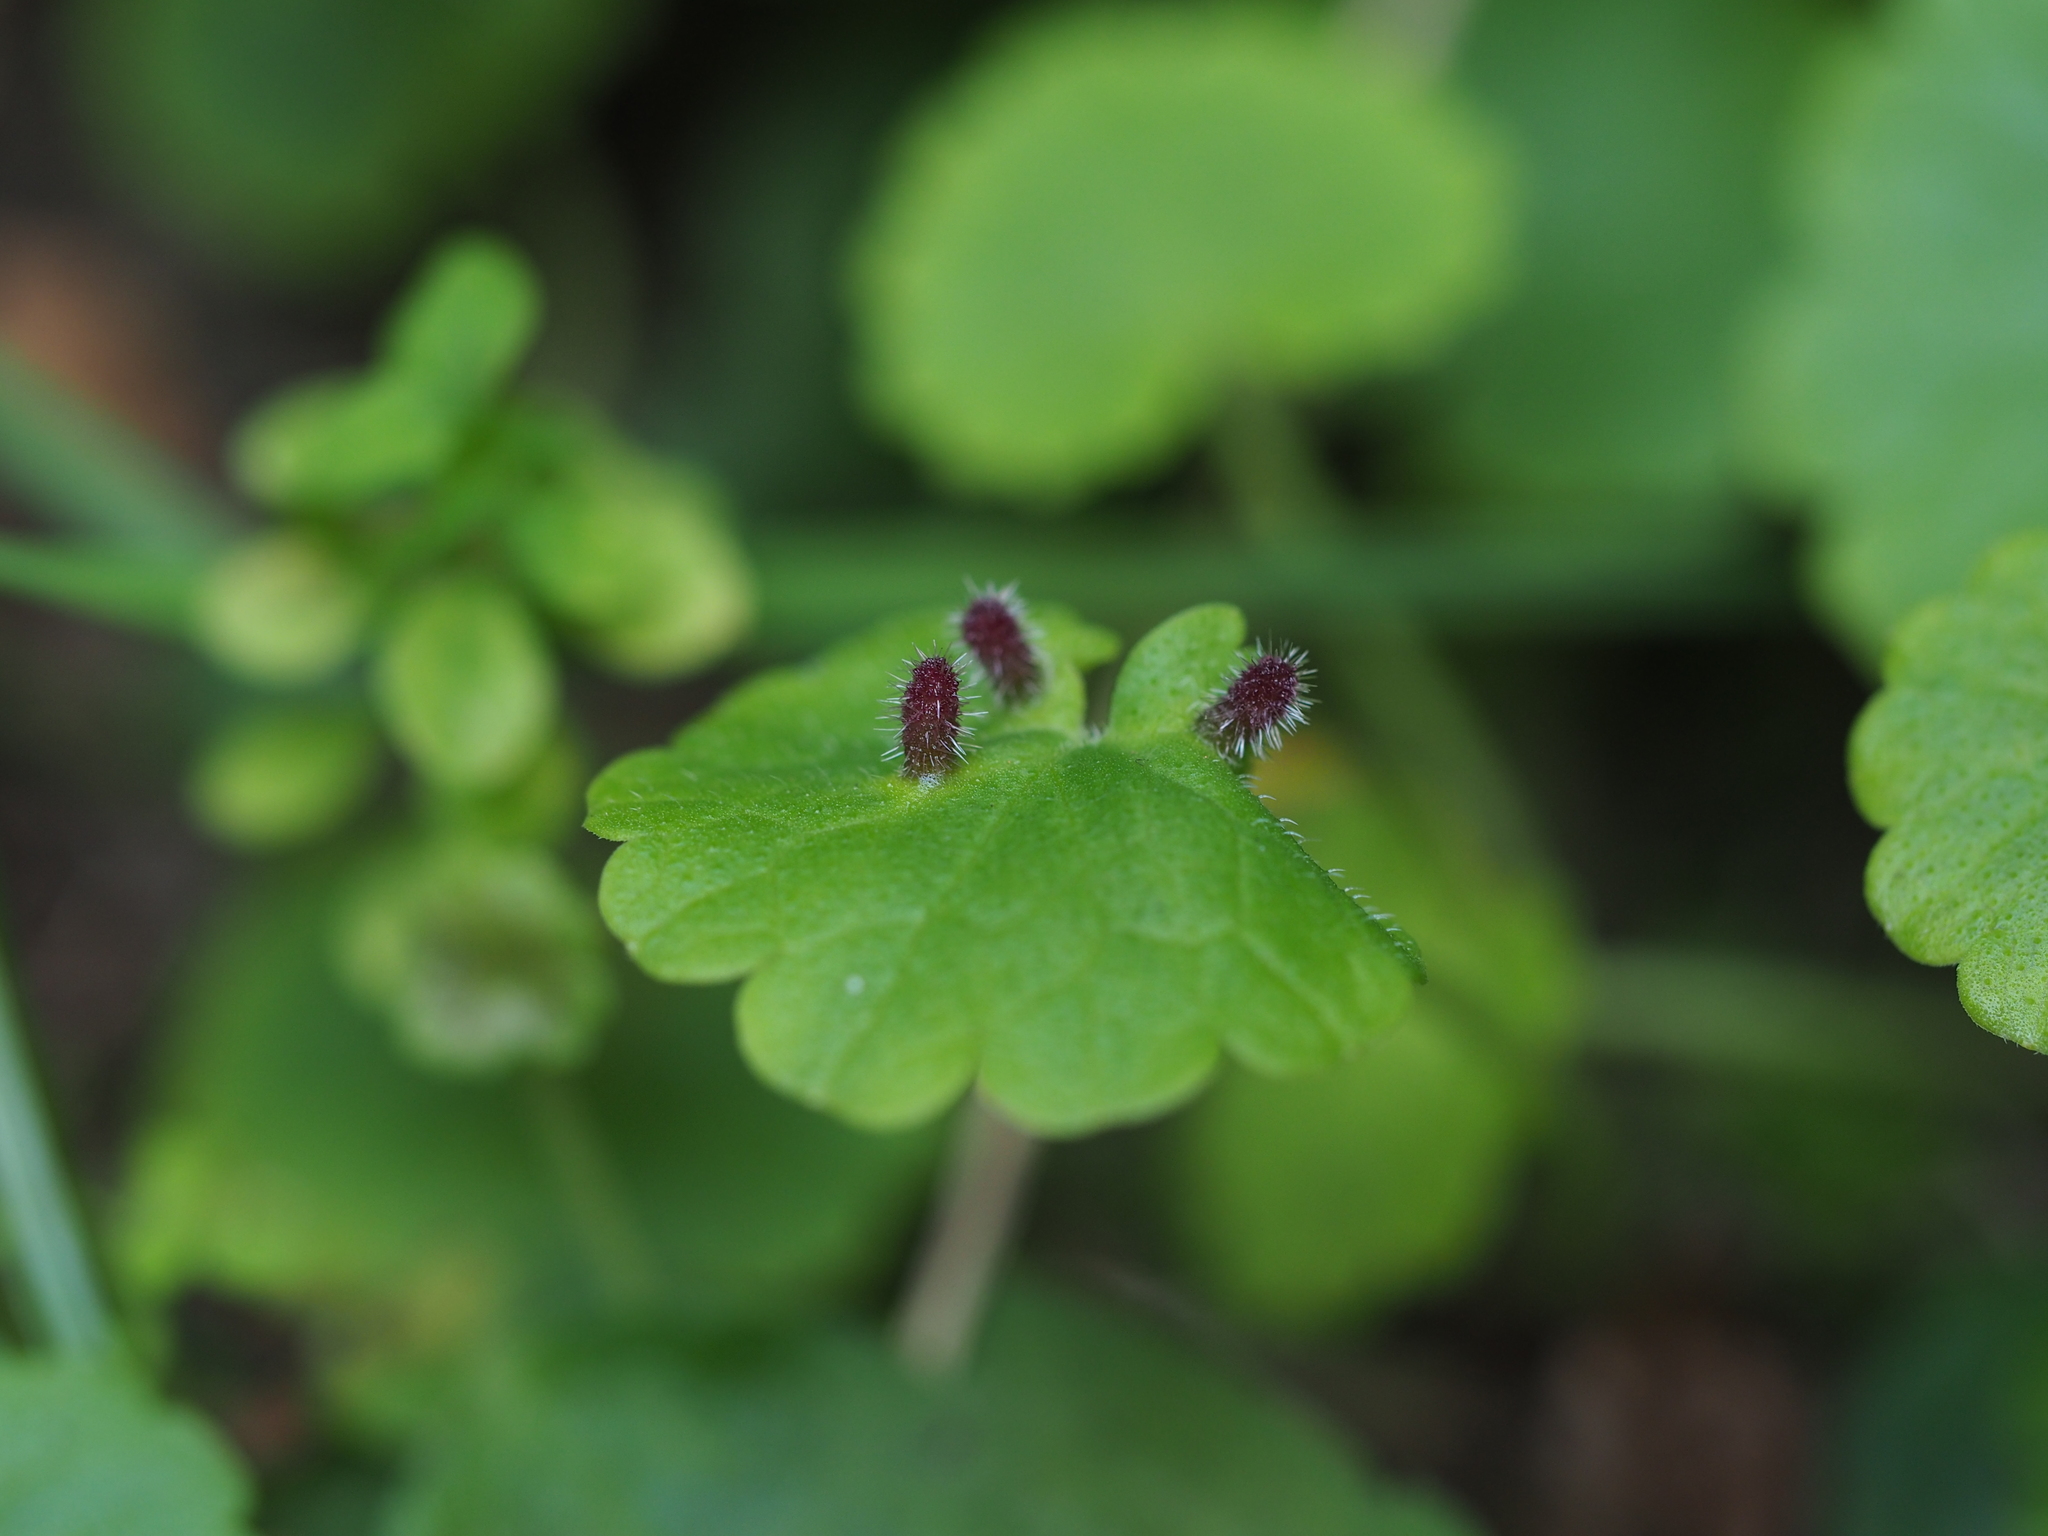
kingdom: Animalia
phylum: Arthropoda
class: Insecta
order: Diptera
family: Cecidomyiidae
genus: Rondaniola
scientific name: Rondaniola bursaria
